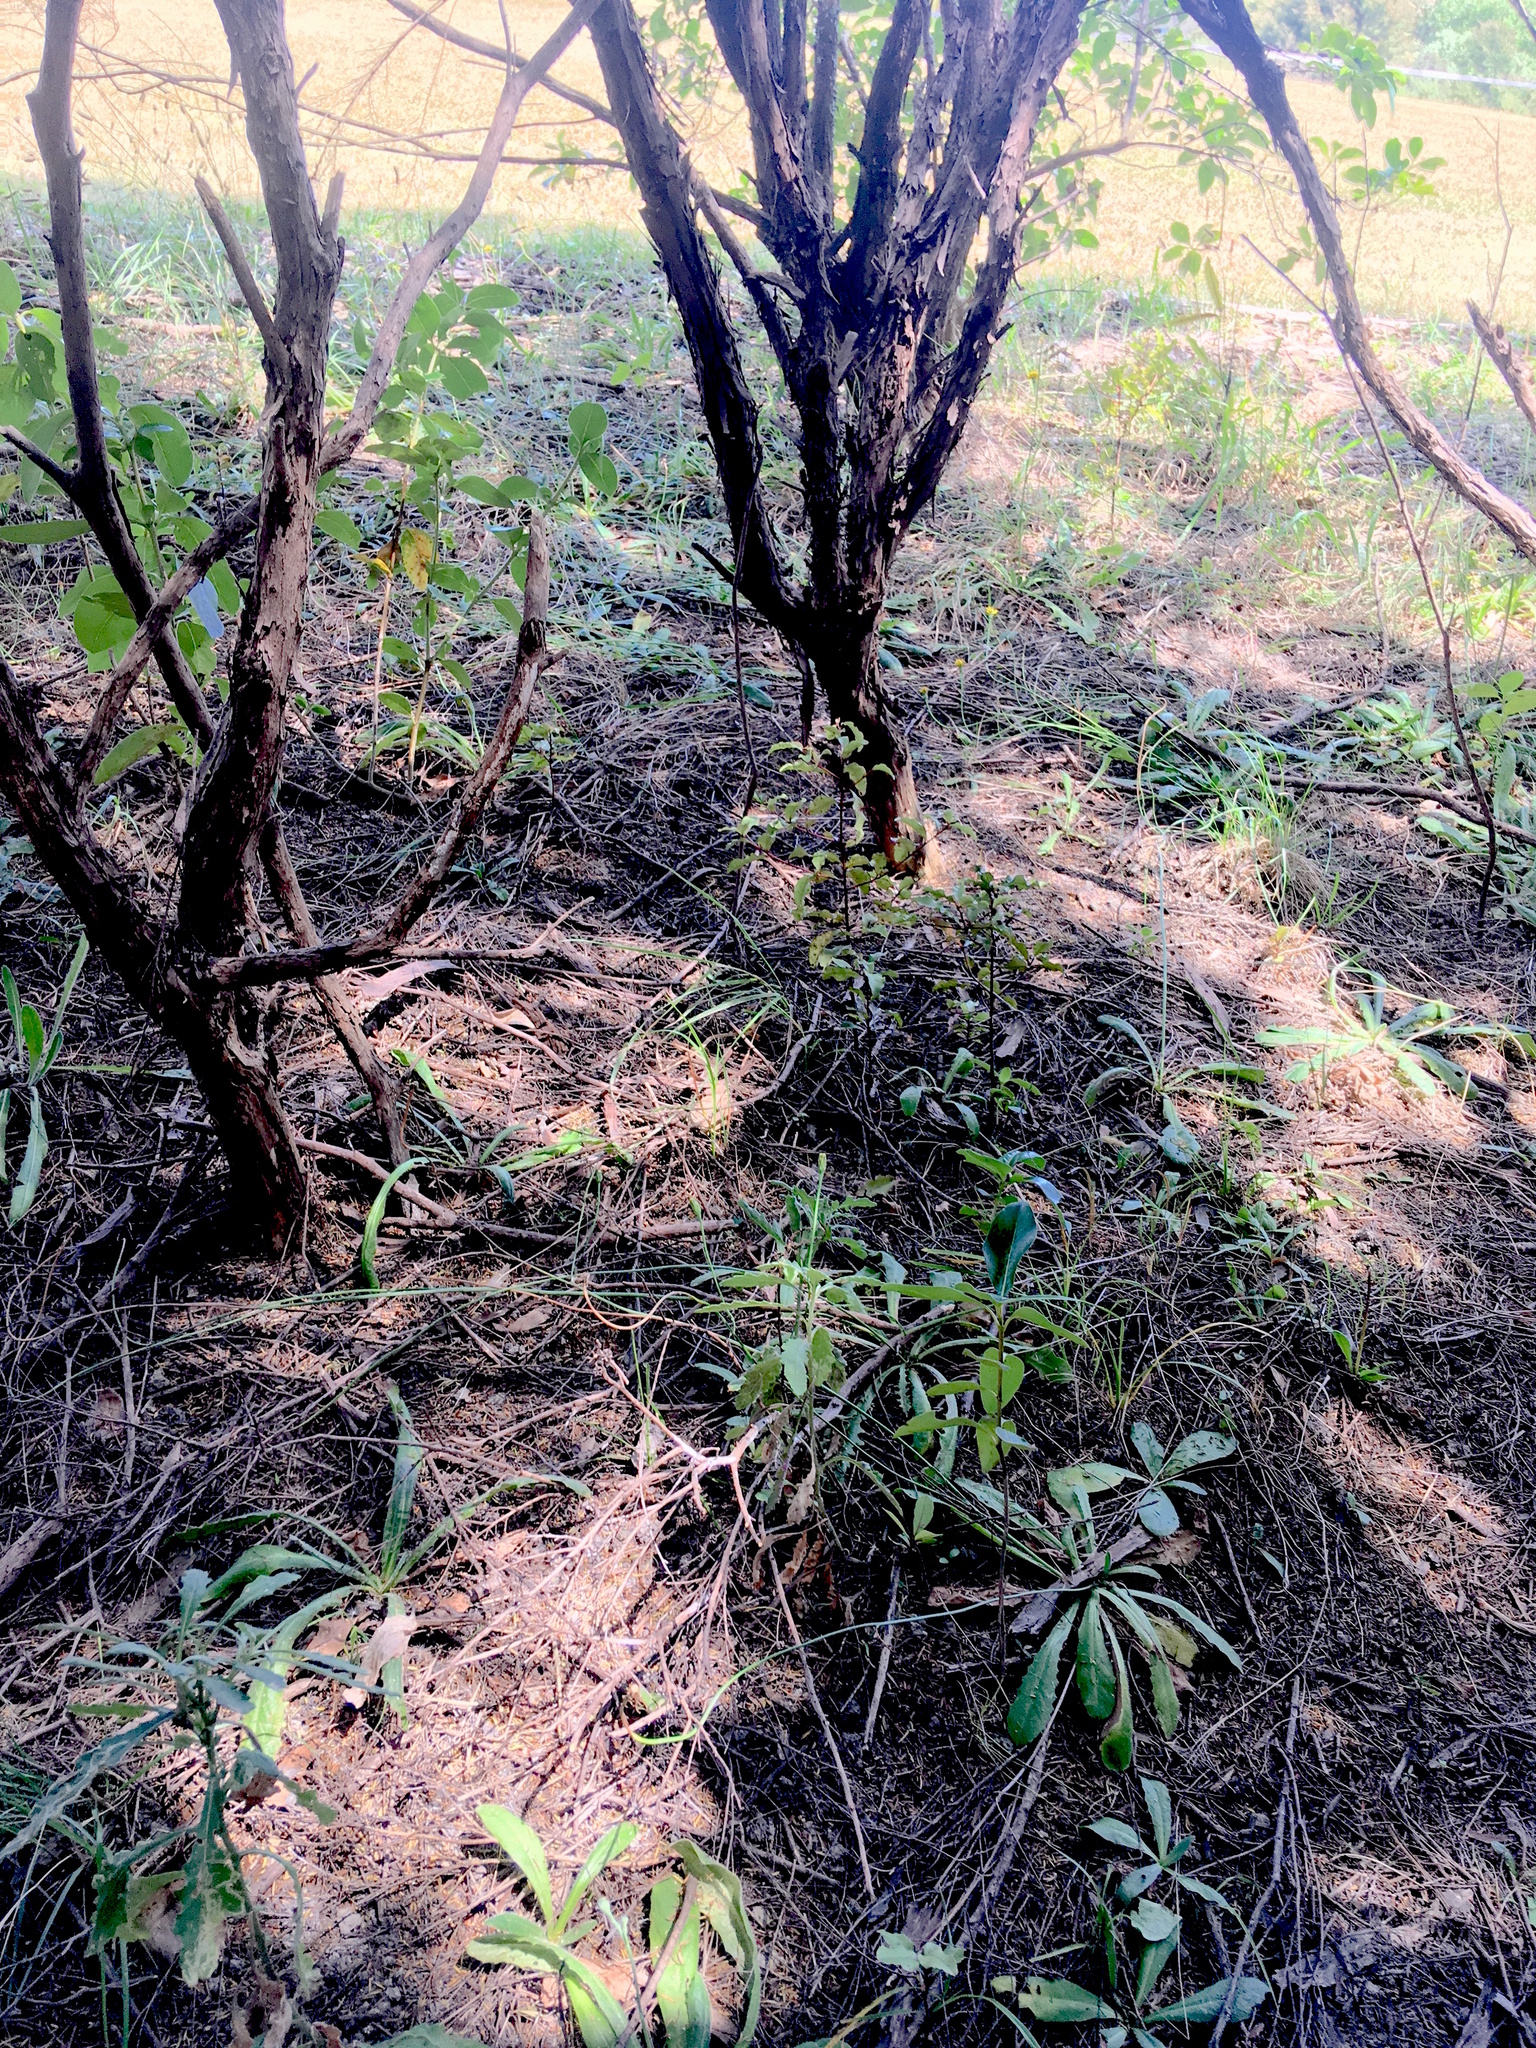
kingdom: Plantae
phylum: Tracheophyta
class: Magnoliopsida
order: Ericales
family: Primulaceae
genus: Myrsine
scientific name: Myrsine australis
